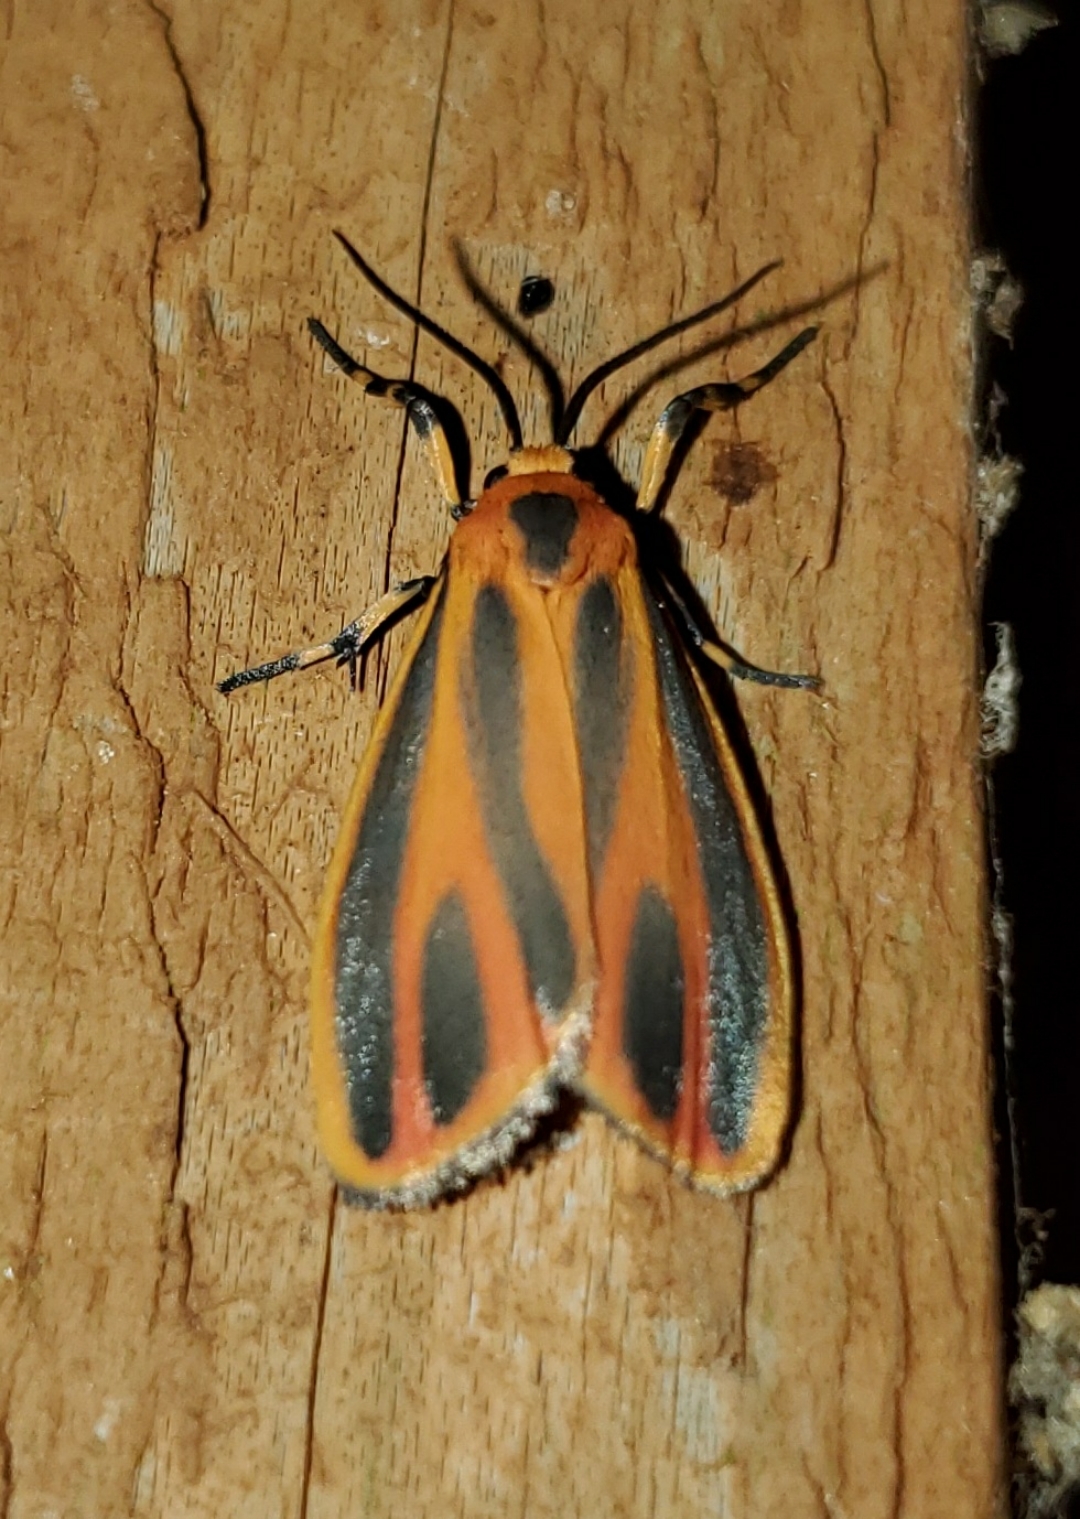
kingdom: Animalia
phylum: Arthropoda
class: Insecta
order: Lepidoptera
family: Erebidae
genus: Hypoprepia
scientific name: Hypoprepia fucosa
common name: Painted lichen moth
